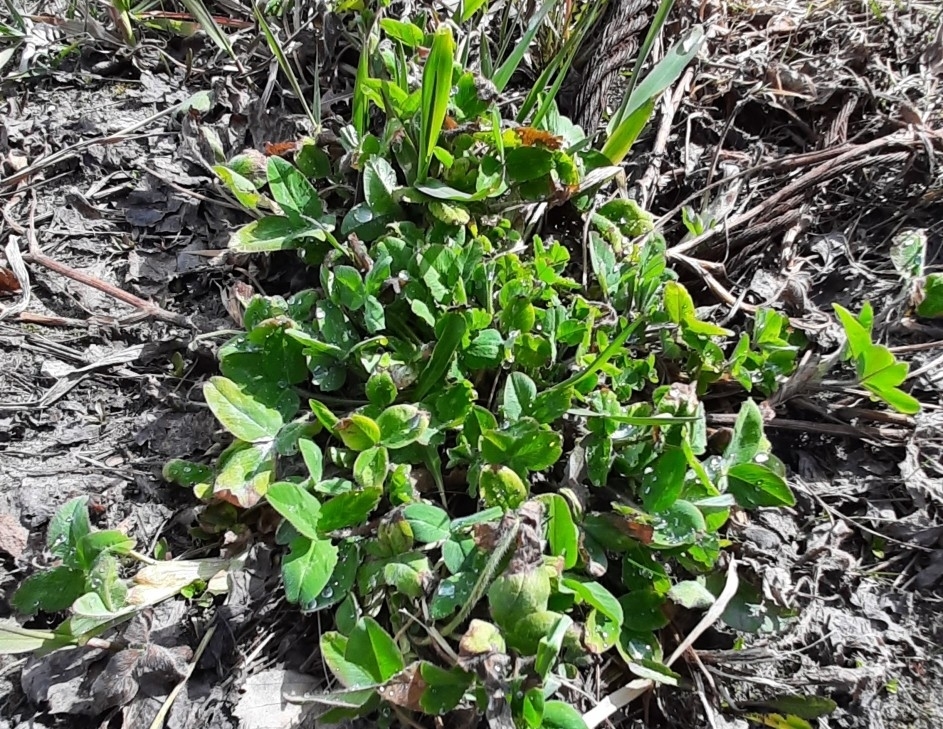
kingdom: Plantae
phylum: Tracheophyta
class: Magnoliopsida
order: Fabales
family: Fabaceae
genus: Trifolium
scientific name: Trifolium pratense
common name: Red clover
